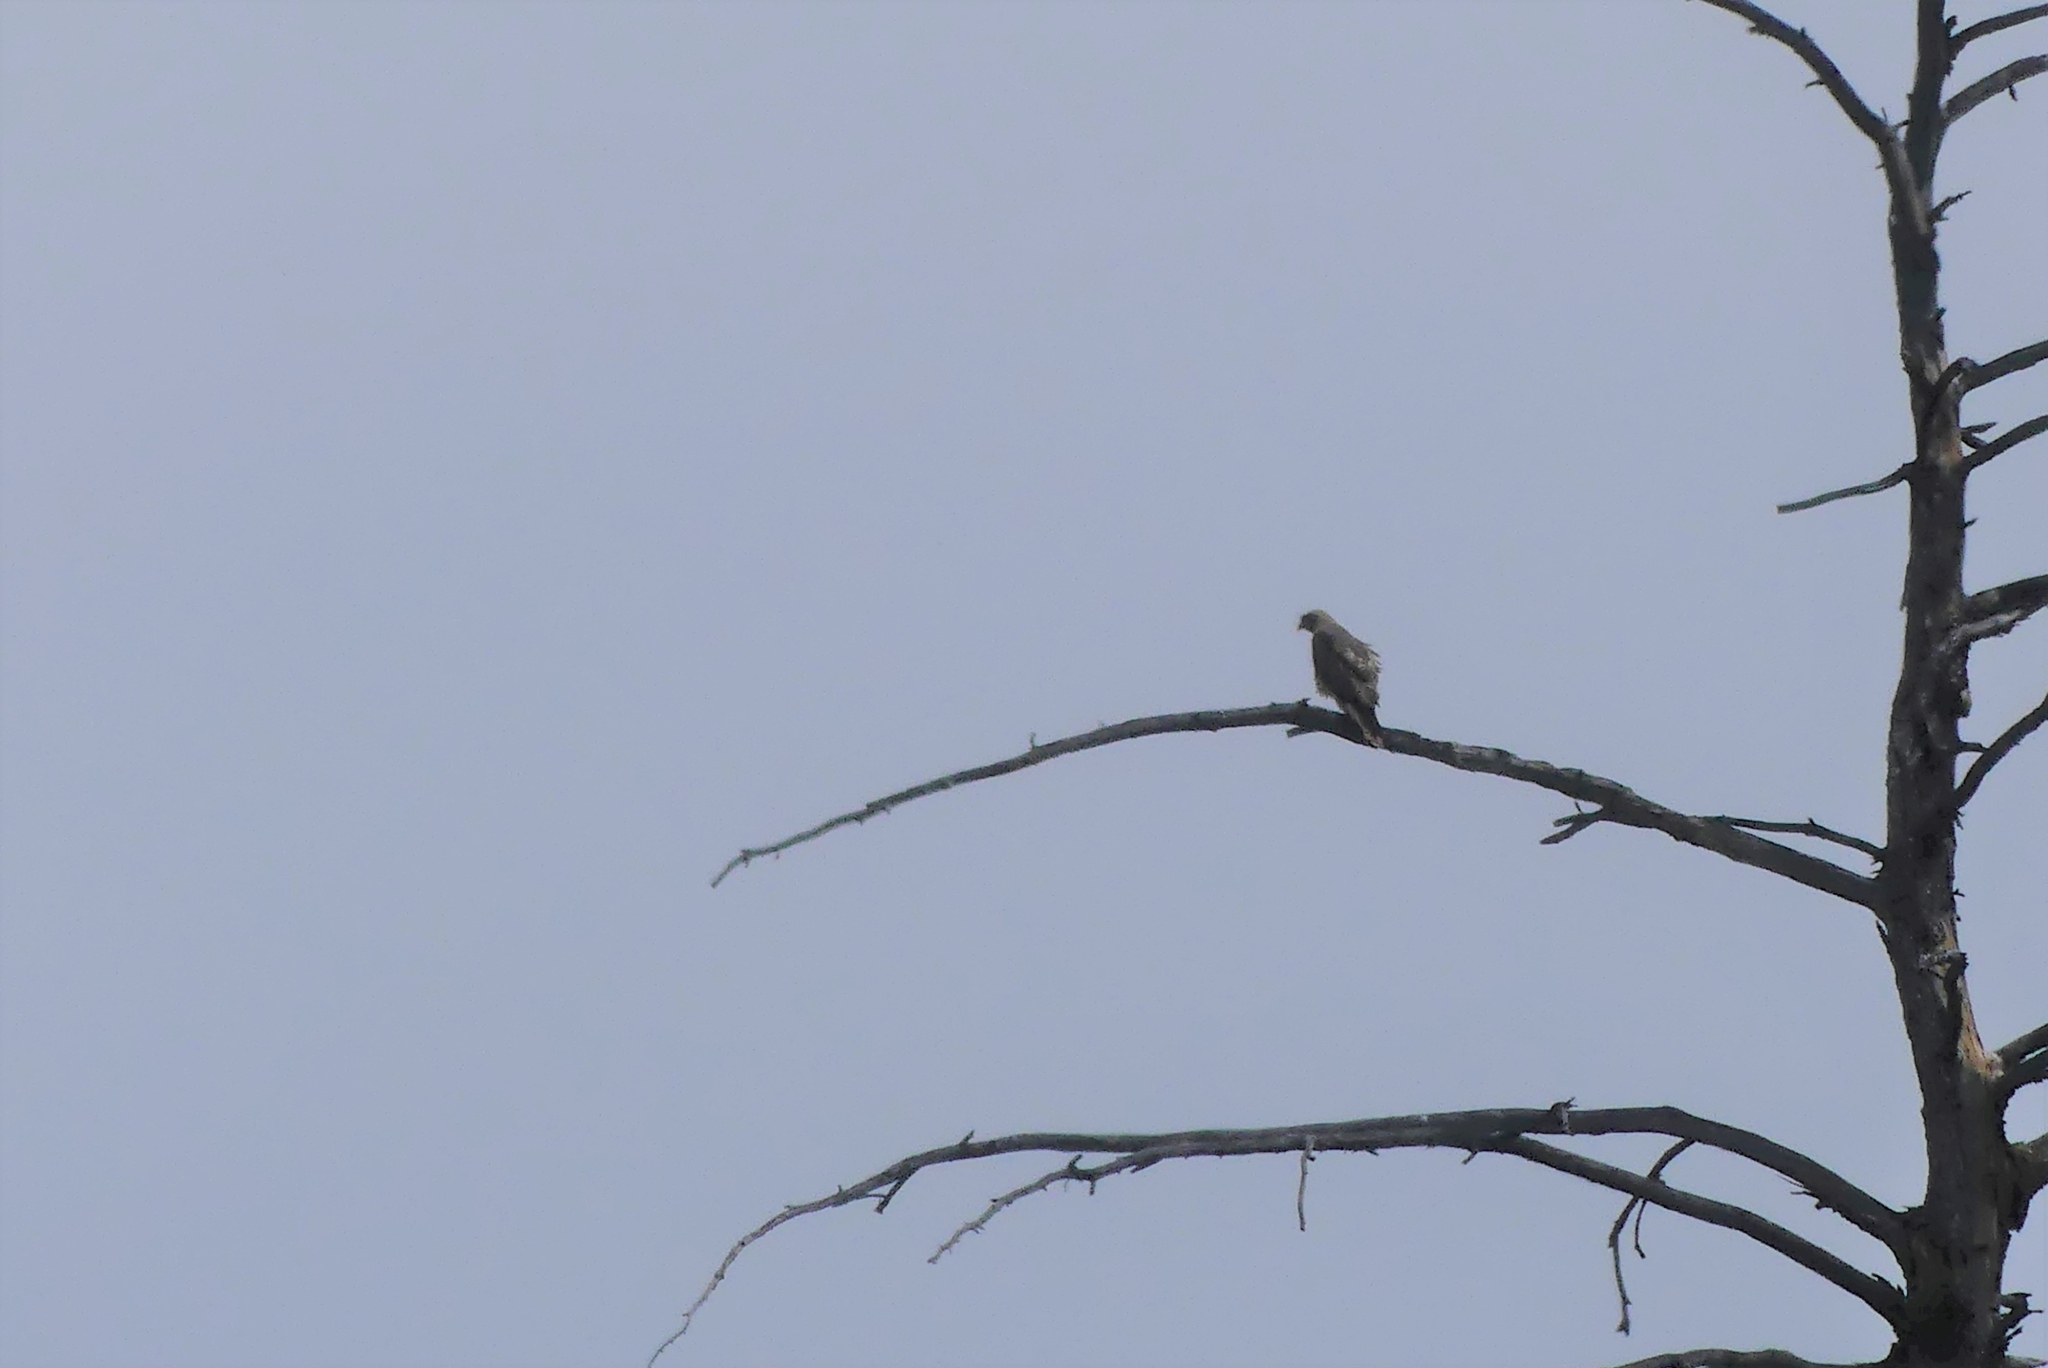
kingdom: Animalia
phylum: Chordata
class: Aves
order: Accipitriformes
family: Accipitridae
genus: Buteo
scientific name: Buteo jamaicensis
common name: Red-tailed hawk
